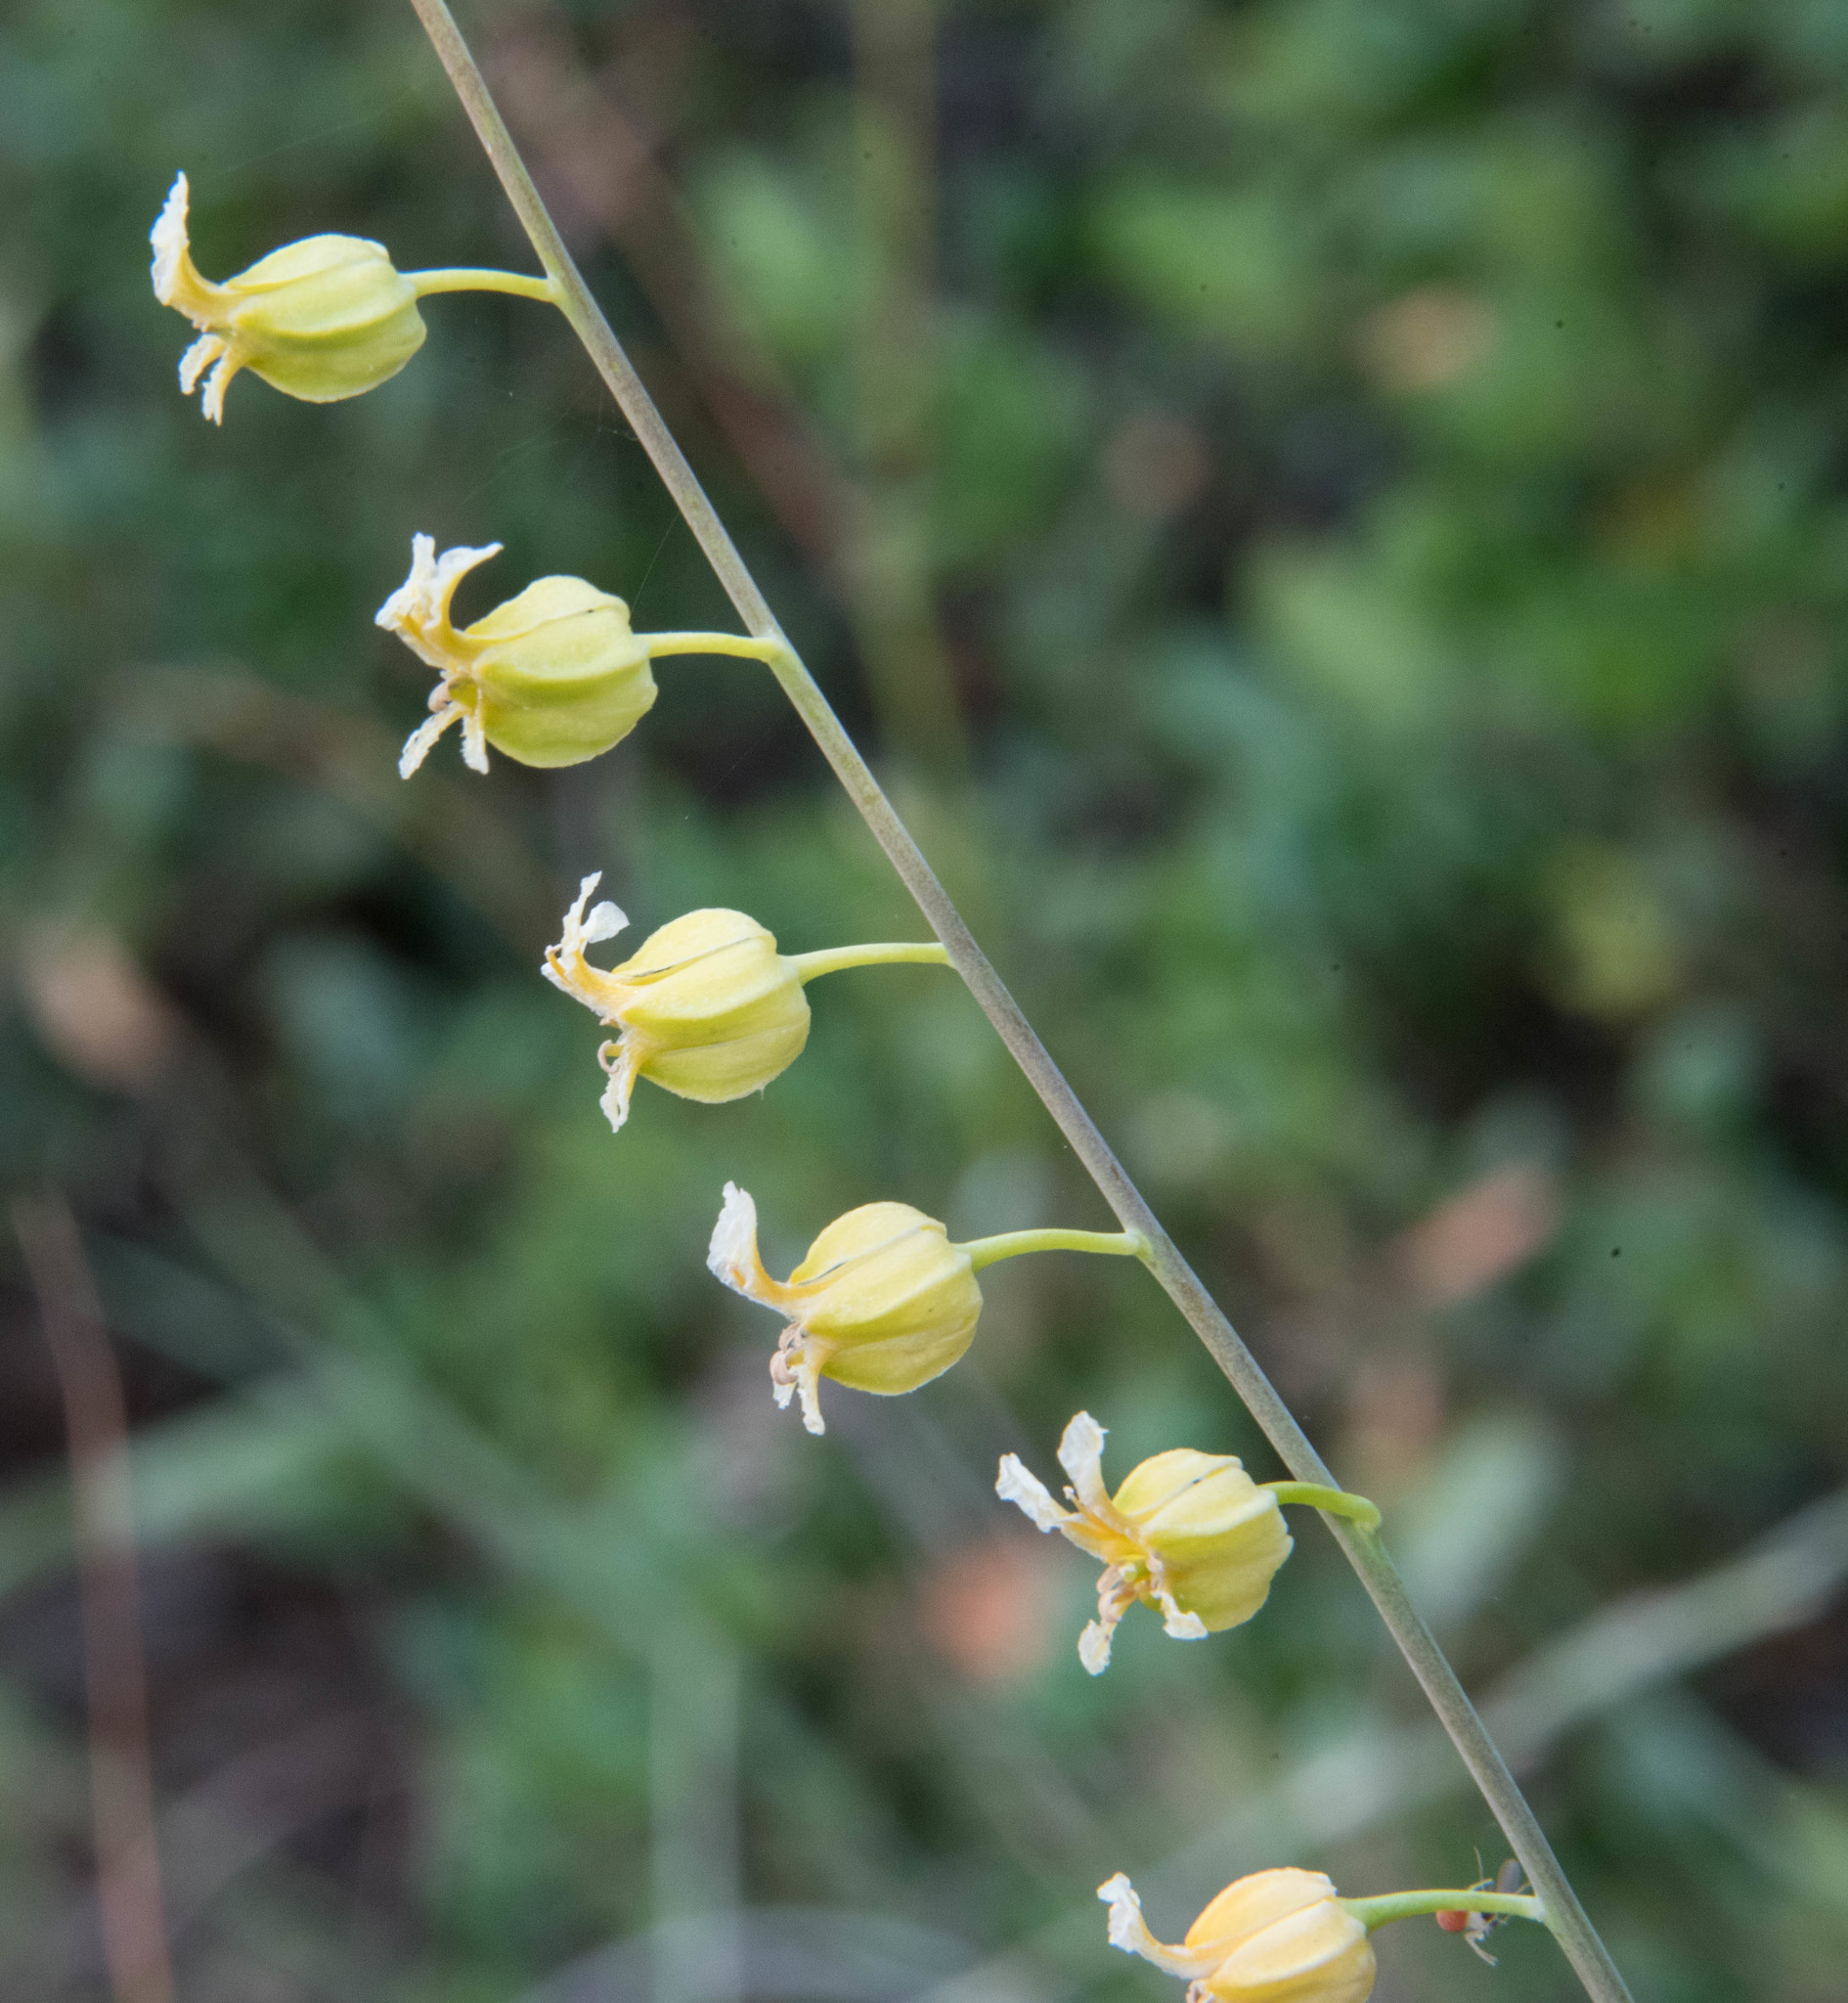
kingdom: Plantae
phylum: Tracheophyta
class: Magnoliopsida
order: Brassicales
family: Brassicaceae
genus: Streptanthus
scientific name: Streptanthus glandulosus
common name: Jewel-flower
